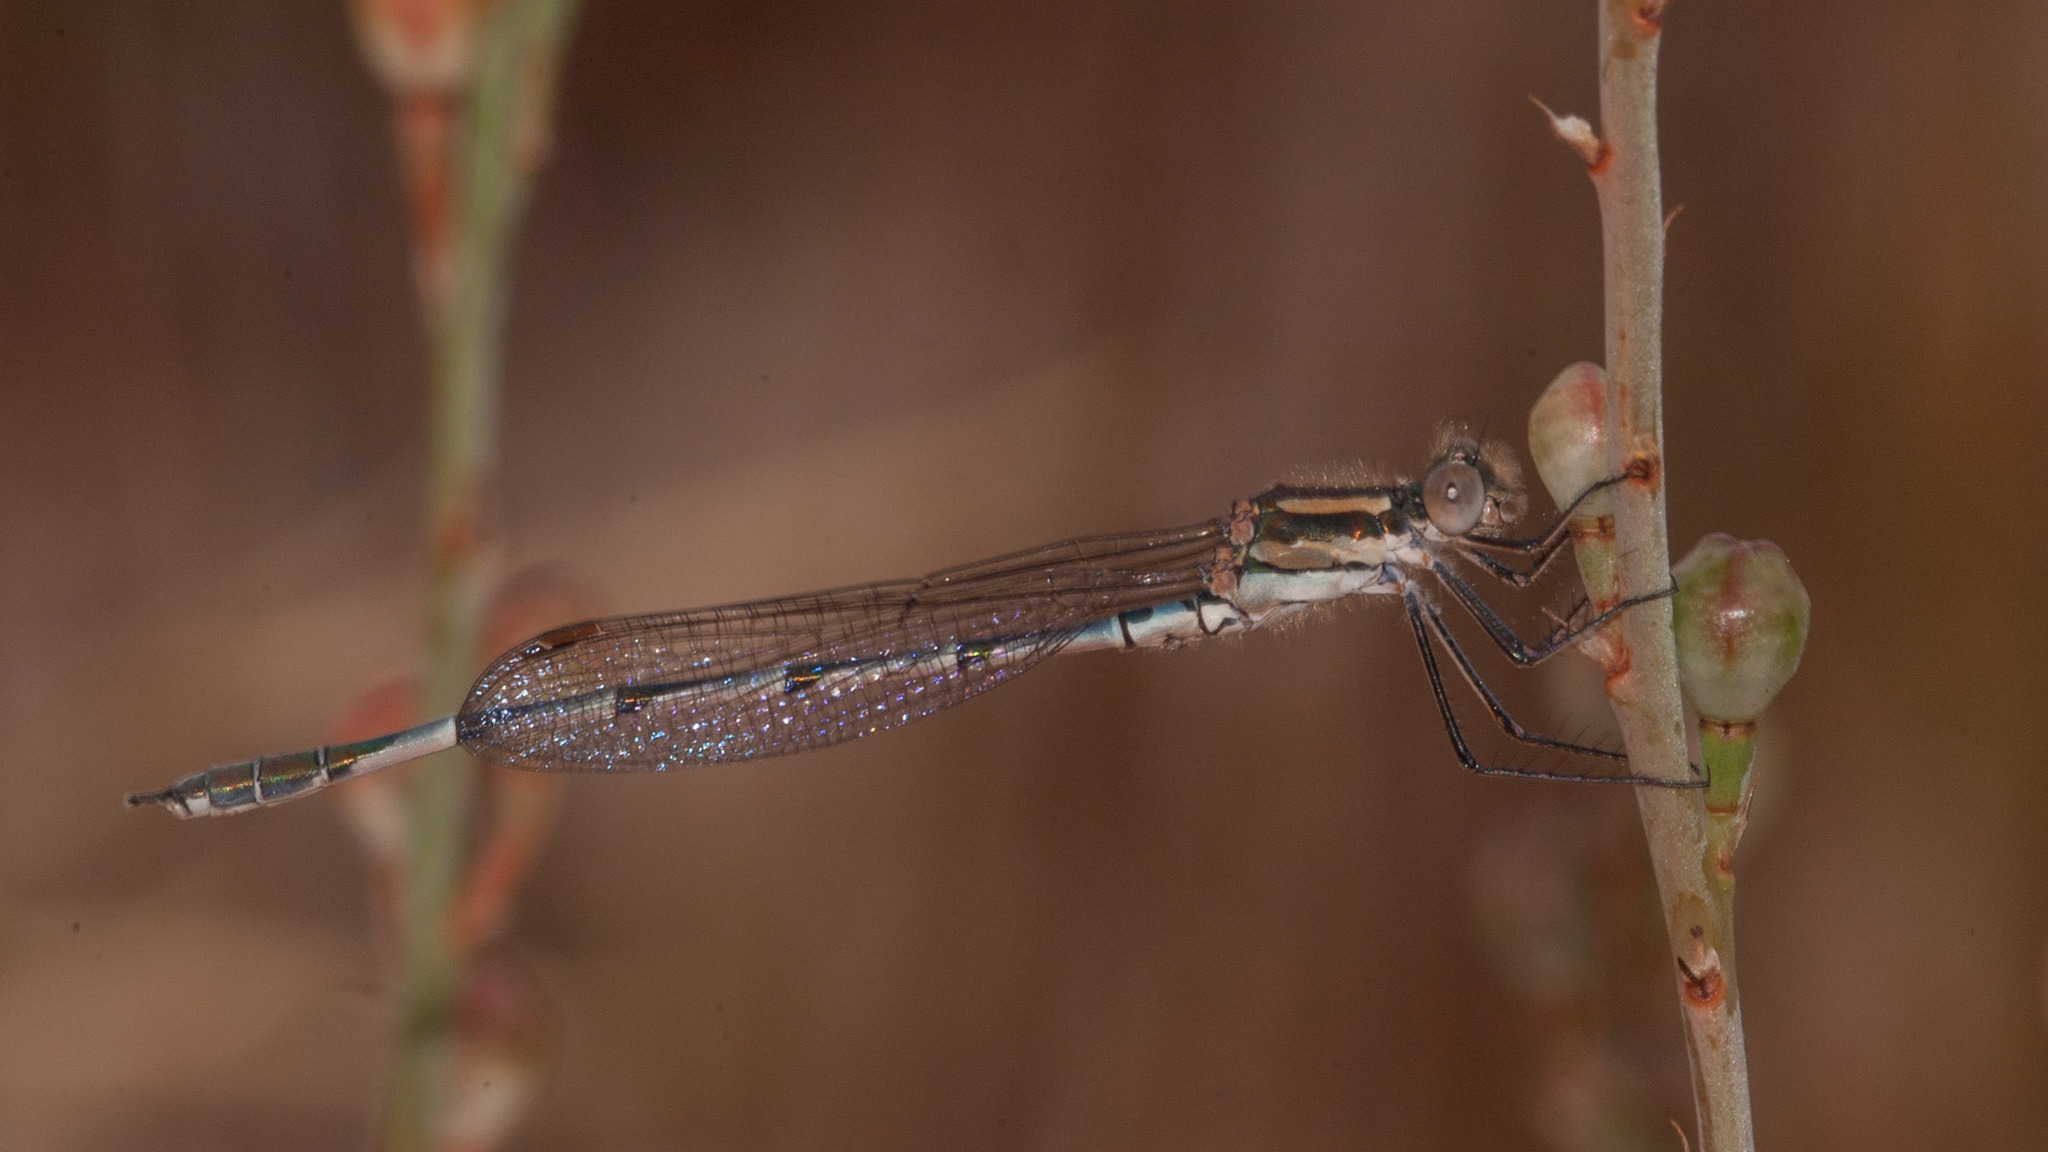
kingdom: Animalia
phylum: Arthropoda
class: Insecta
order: Odonata
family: Lestidae
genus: Austrolestes
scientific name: Austrolestes annulosus
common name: Blue ringtail
